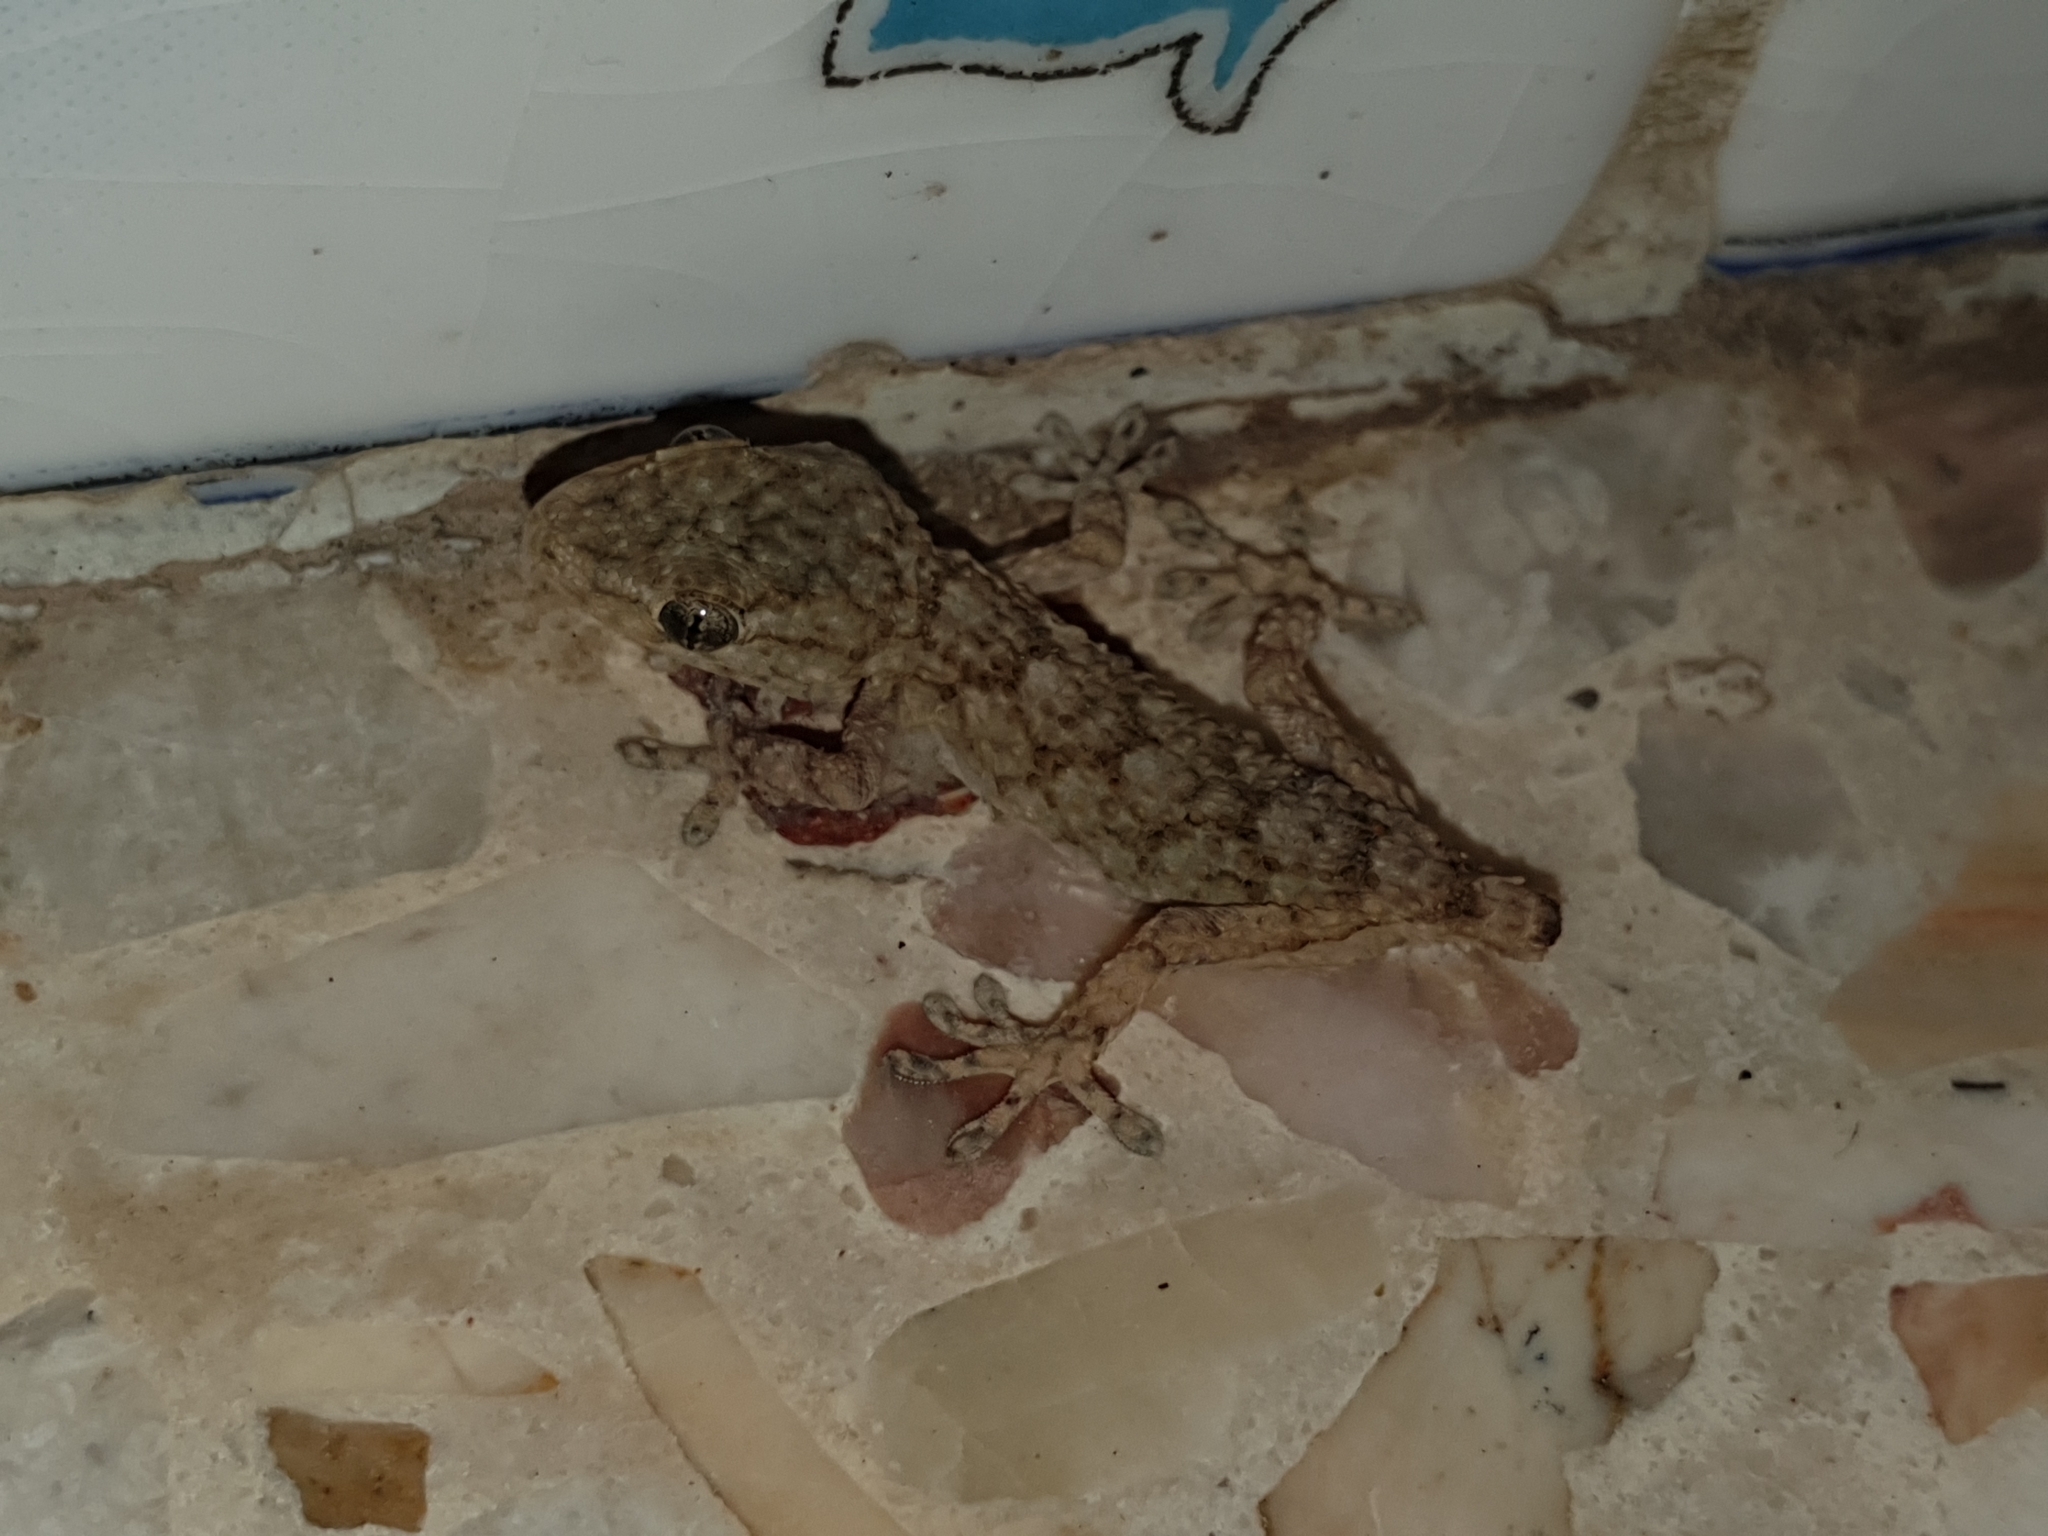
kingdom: Animalia
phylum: Chordata
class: Squamata
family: Phyllodactylidae
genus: Tarentola
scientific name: Tarentola mauritanica
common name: Moorish gecko
